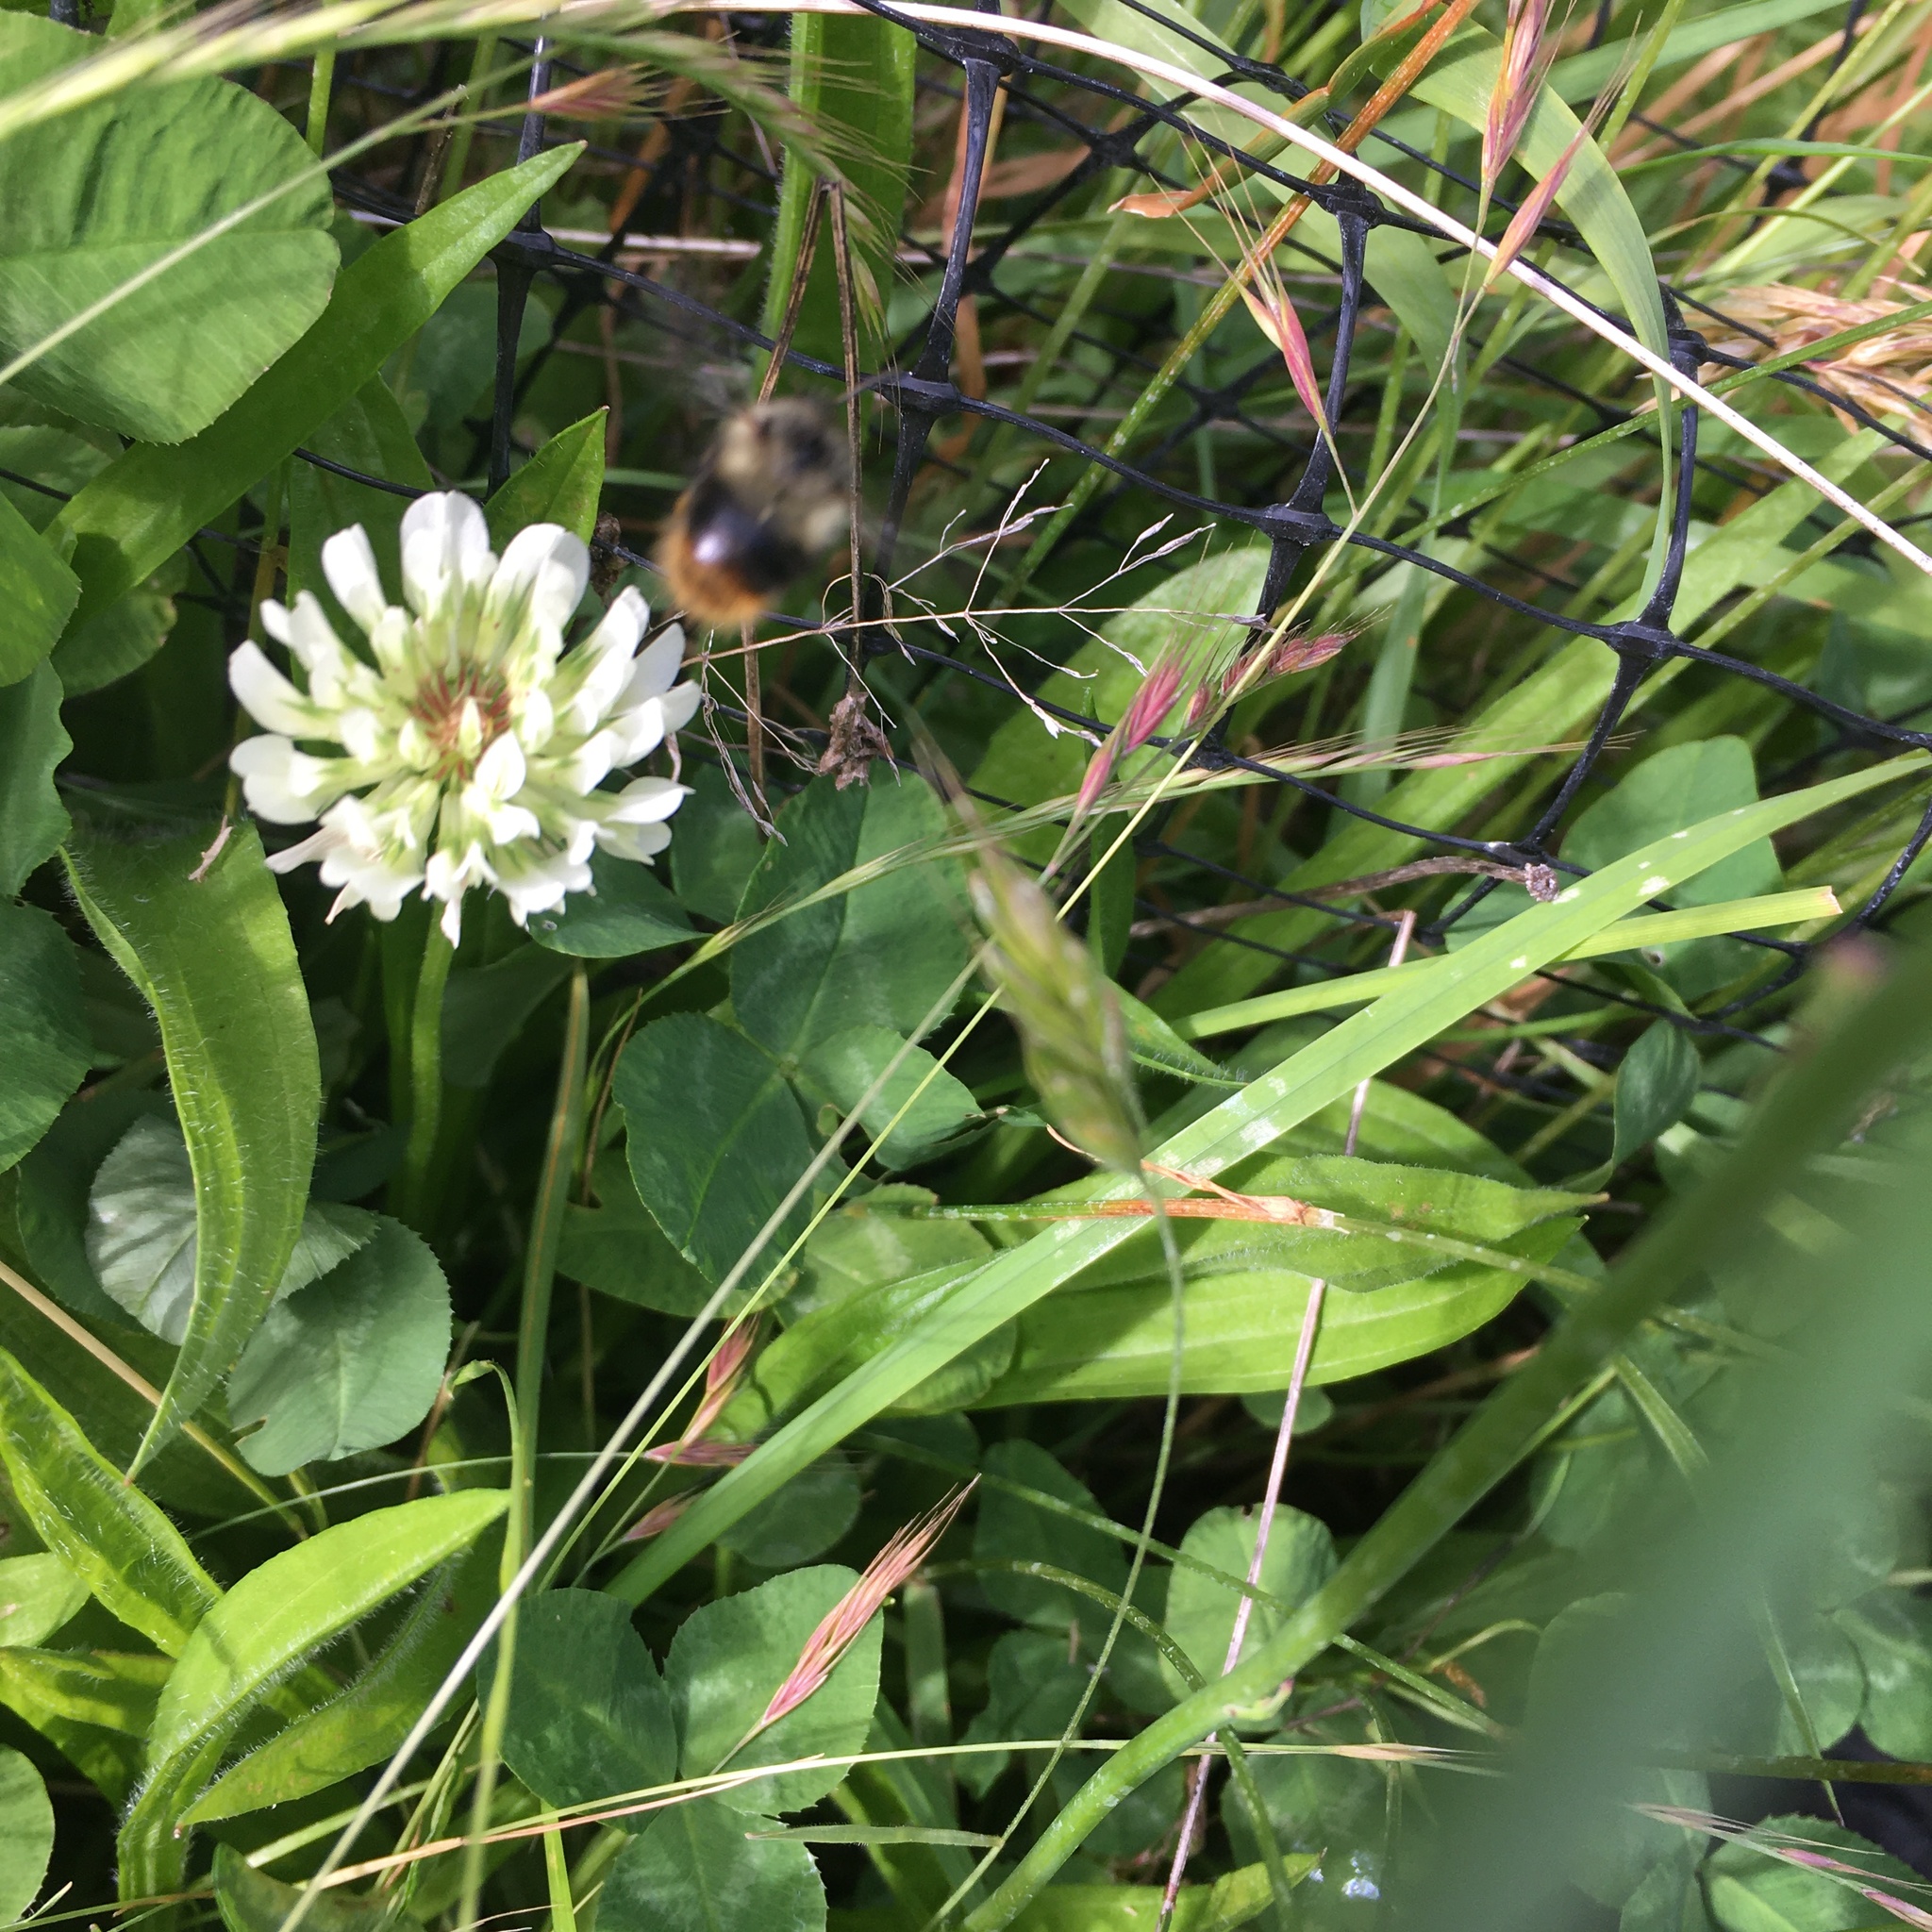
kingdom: Animalia
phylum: Arthropoda
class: Insecta
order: Hymenoptera
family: Apidae
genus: Bombus
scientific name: Bombus mixtus
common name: Fuzzy-horned bumble bee
